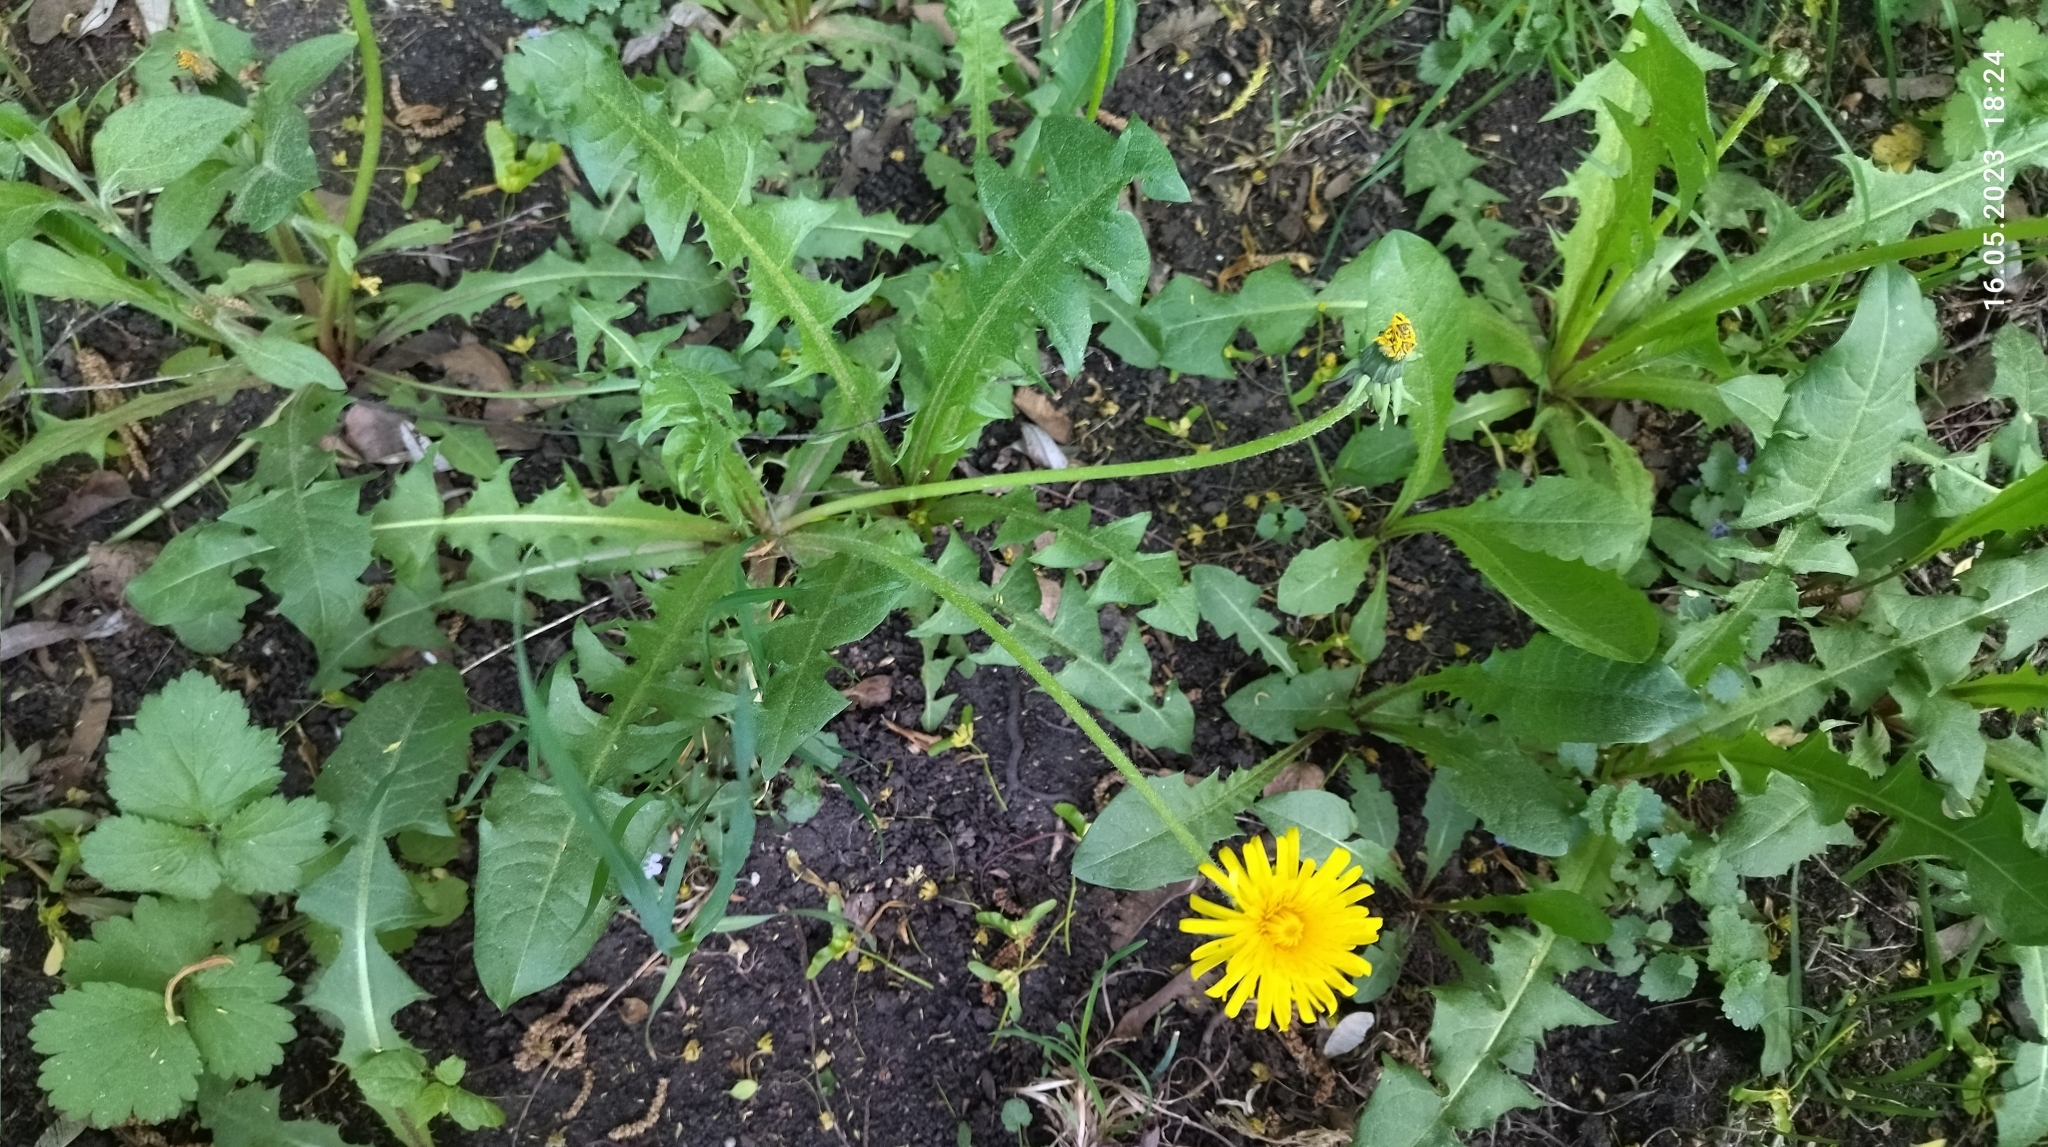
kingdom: Plantae
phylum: Tracheophyta
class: Magnoliopsida
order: Asterales
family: Asteraceae
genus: Taraxacum
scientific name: Taraxacum officinale
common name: Common dandelion
